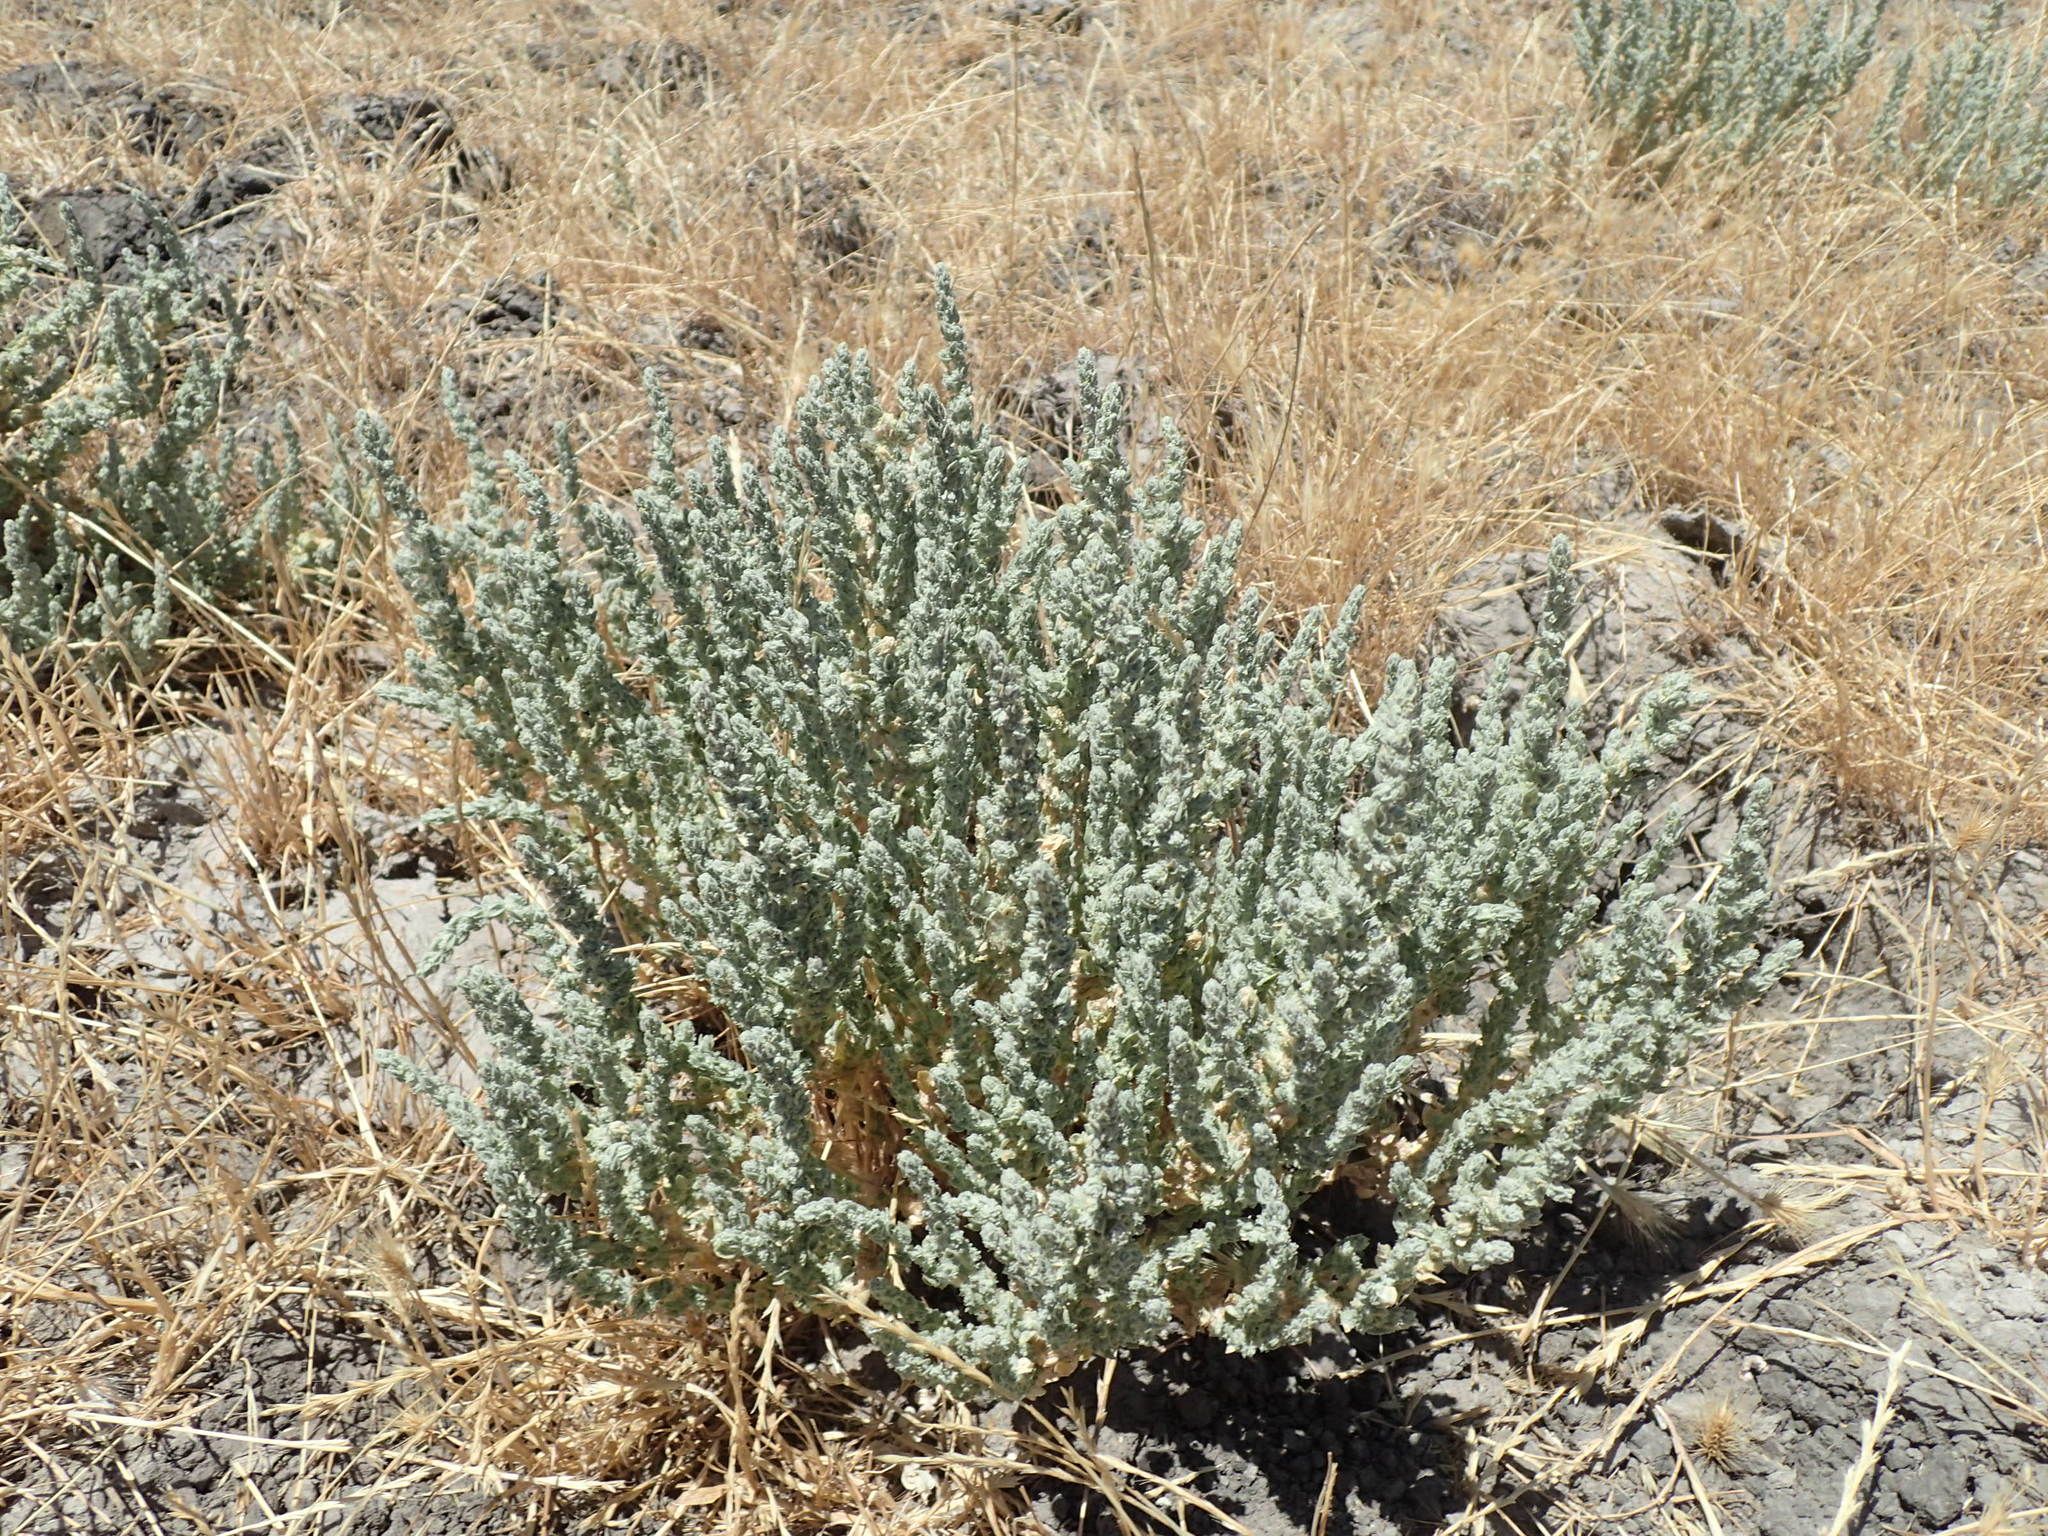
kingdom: Plantae
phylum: Tracheophyta
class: Magnoliopsida
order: Caryophyllales
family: Amaranthaceae
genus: Atriplex
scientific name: Atriplex coronata
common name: Crownscale
